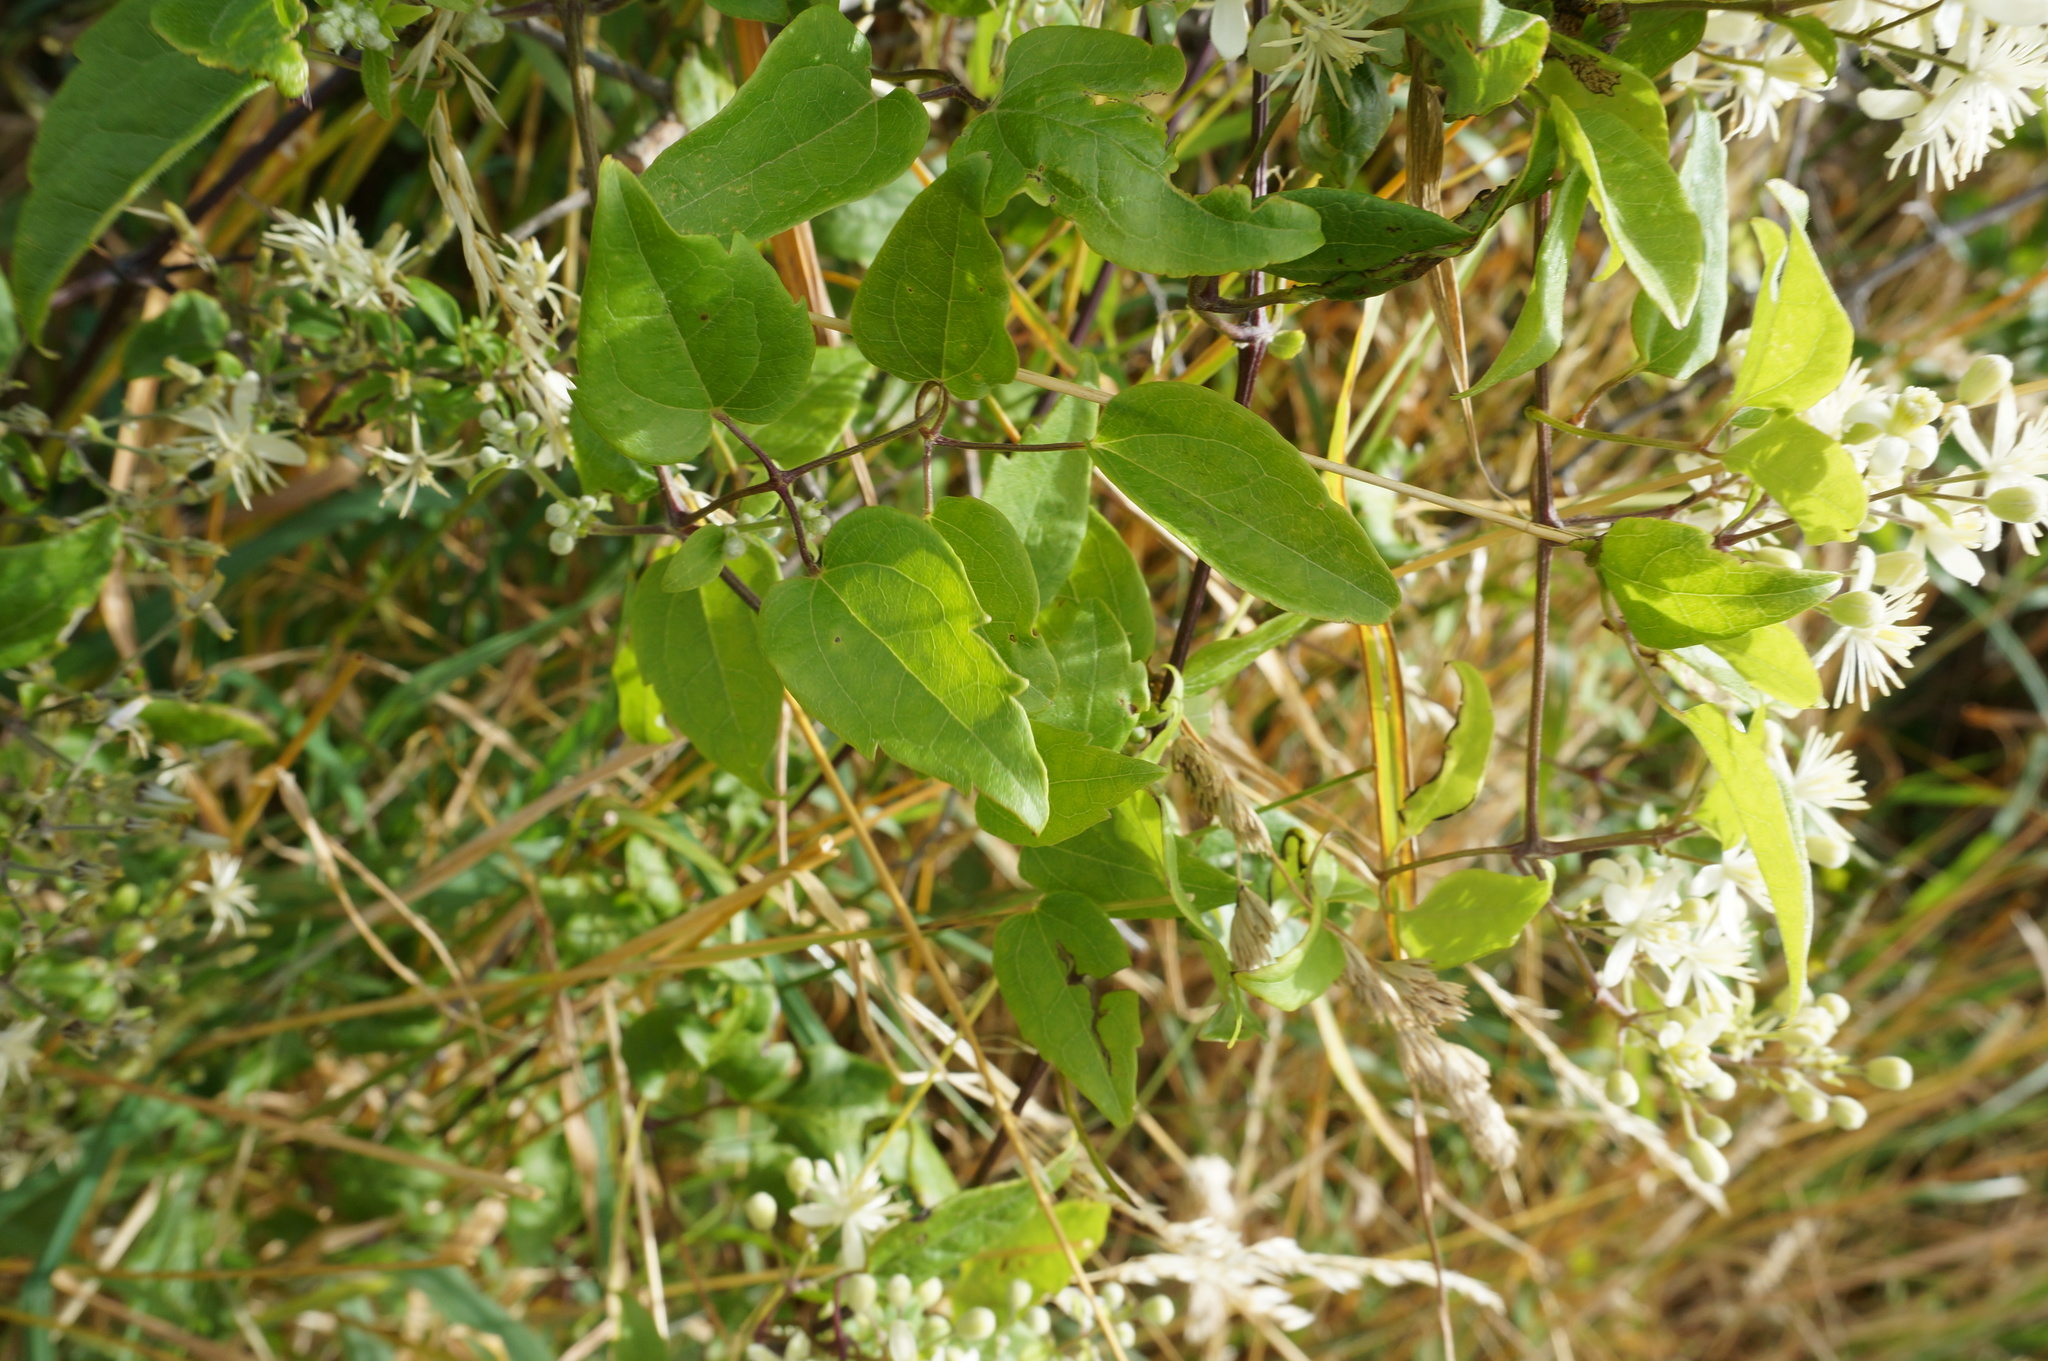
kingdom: Plantae
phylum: Tracheophyta
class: Magnoliopsida
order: Ranunculales
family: Ranunculaceae
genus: Clematis
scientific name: Clematis vitalba
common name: Evergreen clematis
